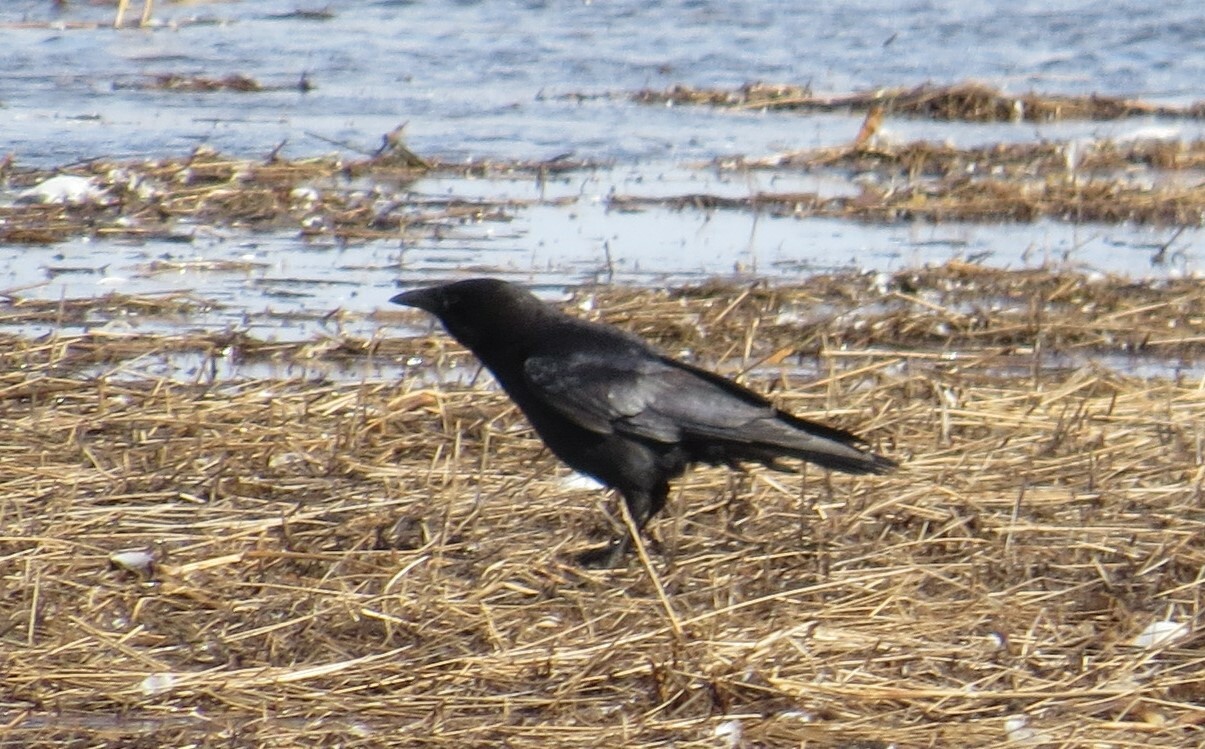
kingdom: Animalia
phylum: Chordata
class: Aves
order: Passeriformes
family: Corvidae
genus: Corvus
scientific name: Corvus brachyrhynchos
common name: American crow
